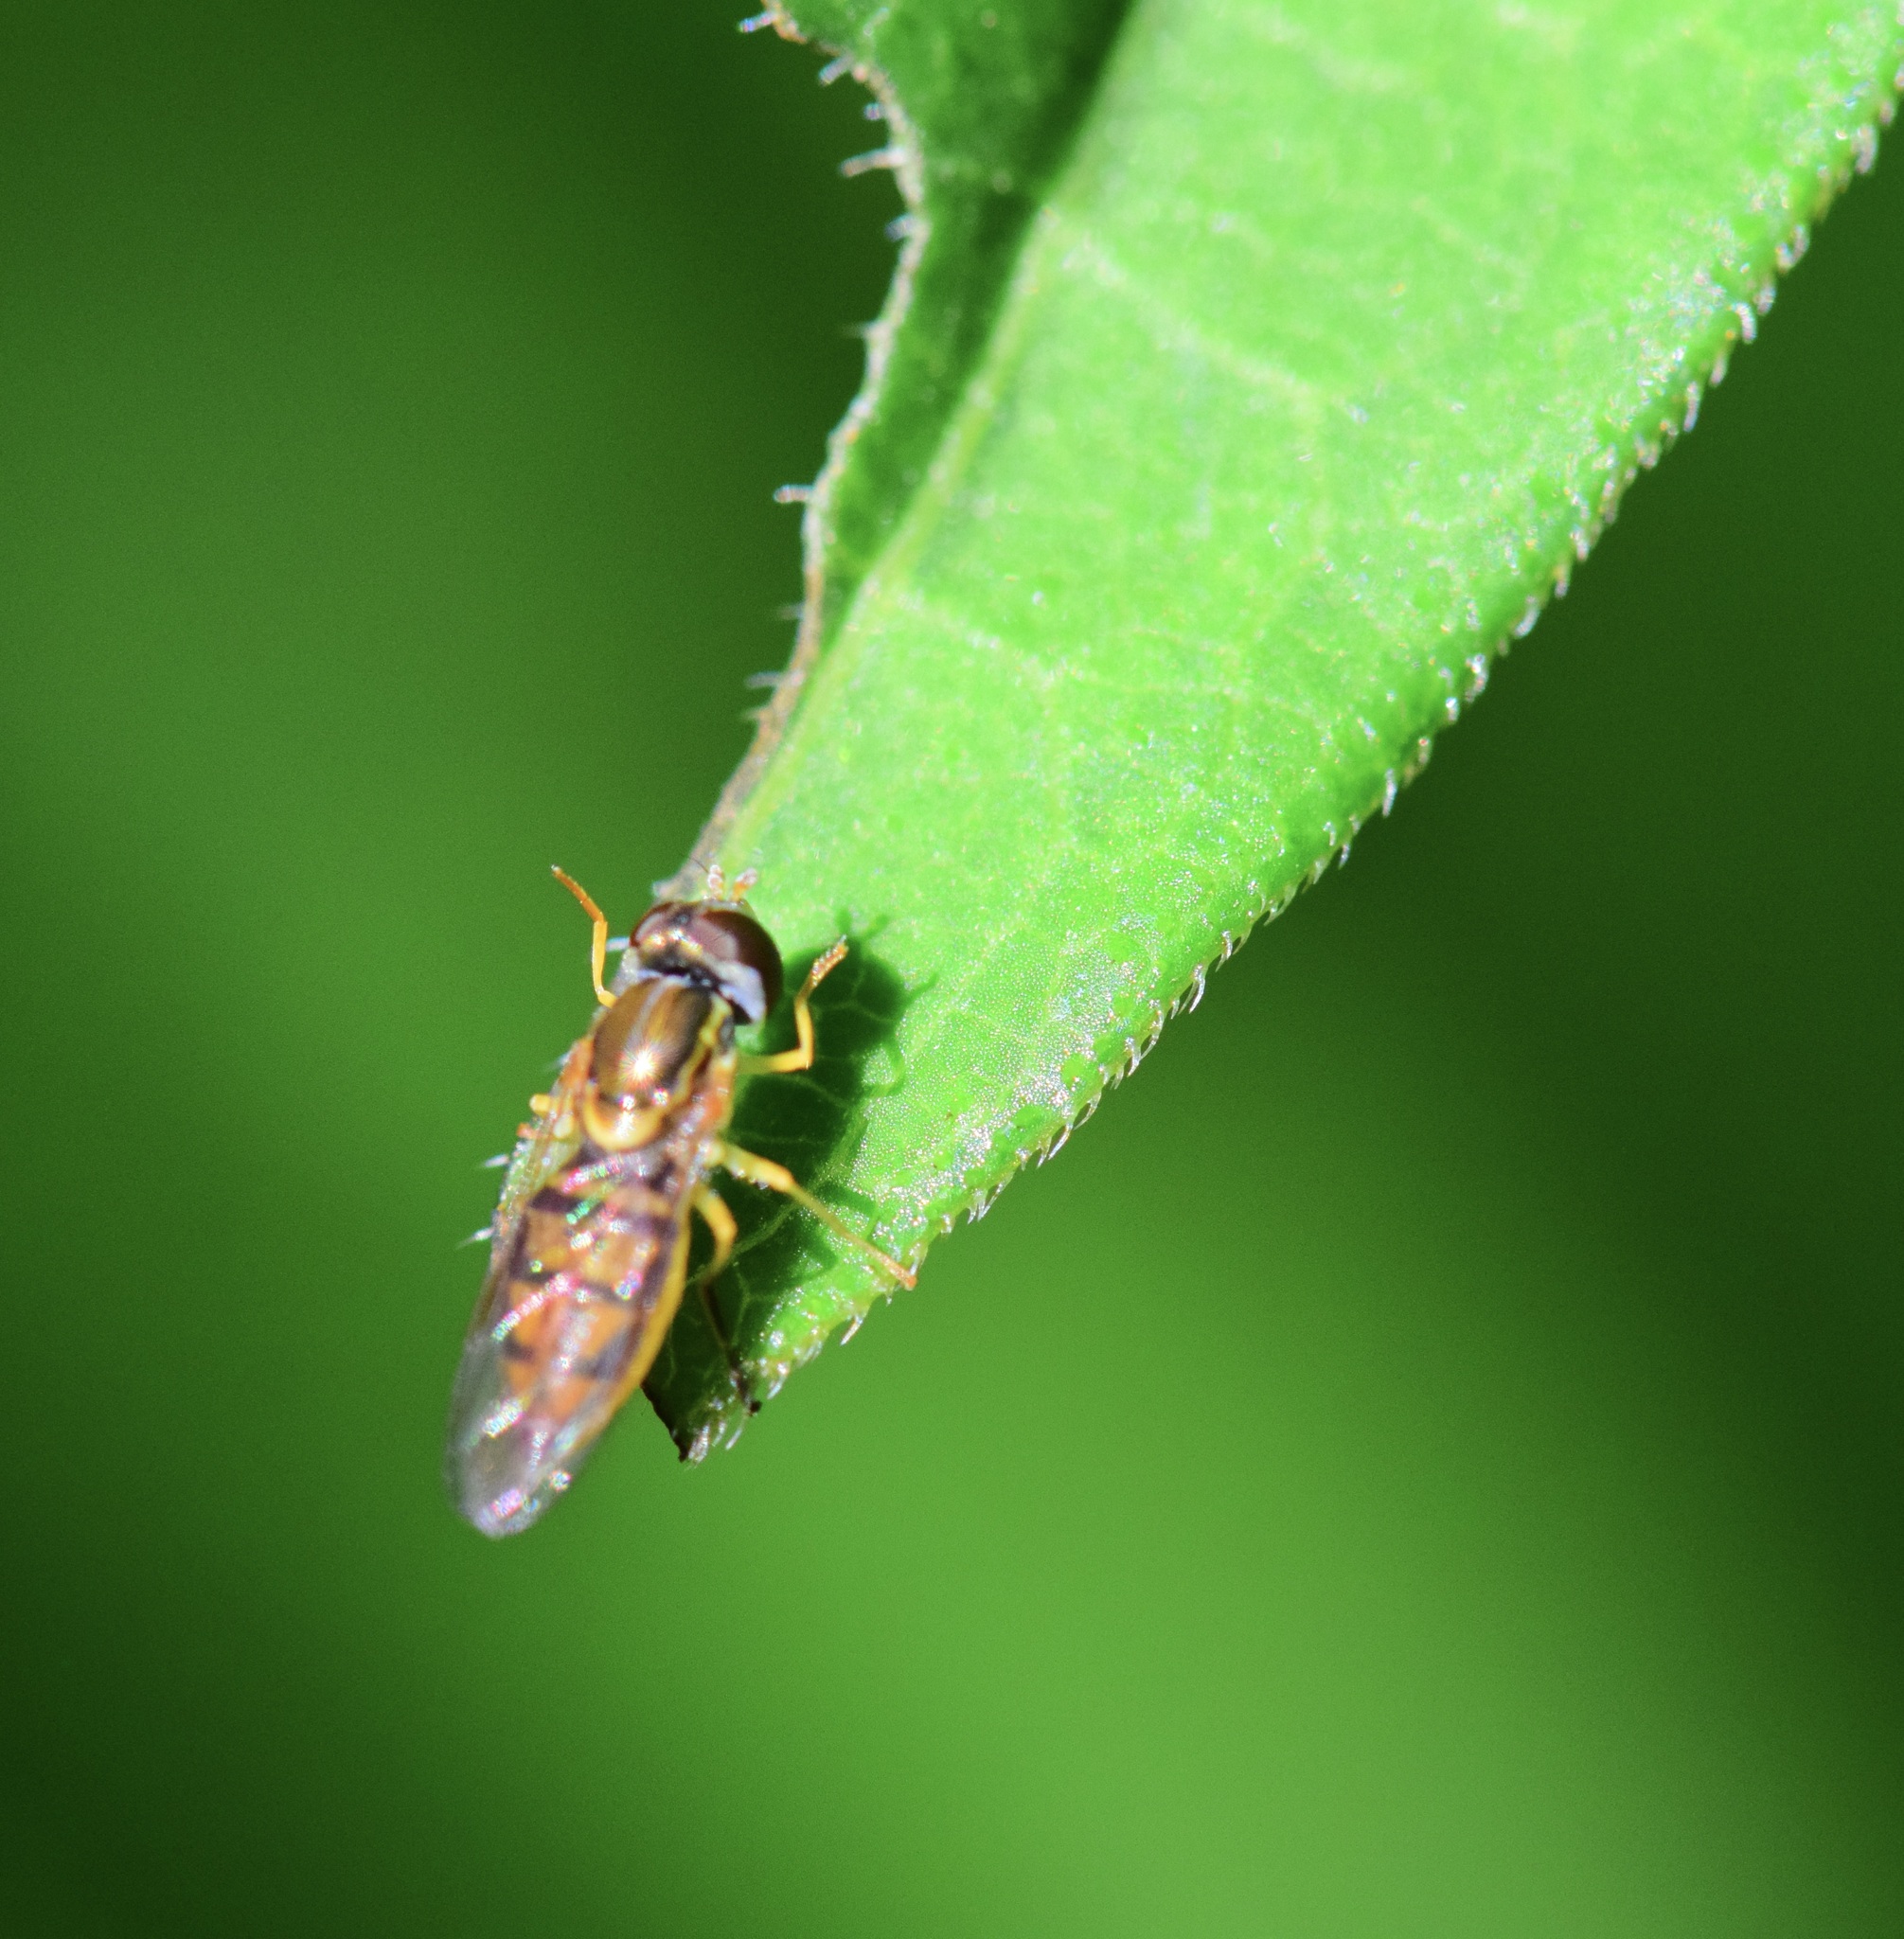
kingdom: Animalia
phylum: Arthropoda
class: Insecta
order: Diptera
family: Syrphidae
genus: Toxomerus
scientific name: Toxomerus marginatus
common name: Syrphid fly
